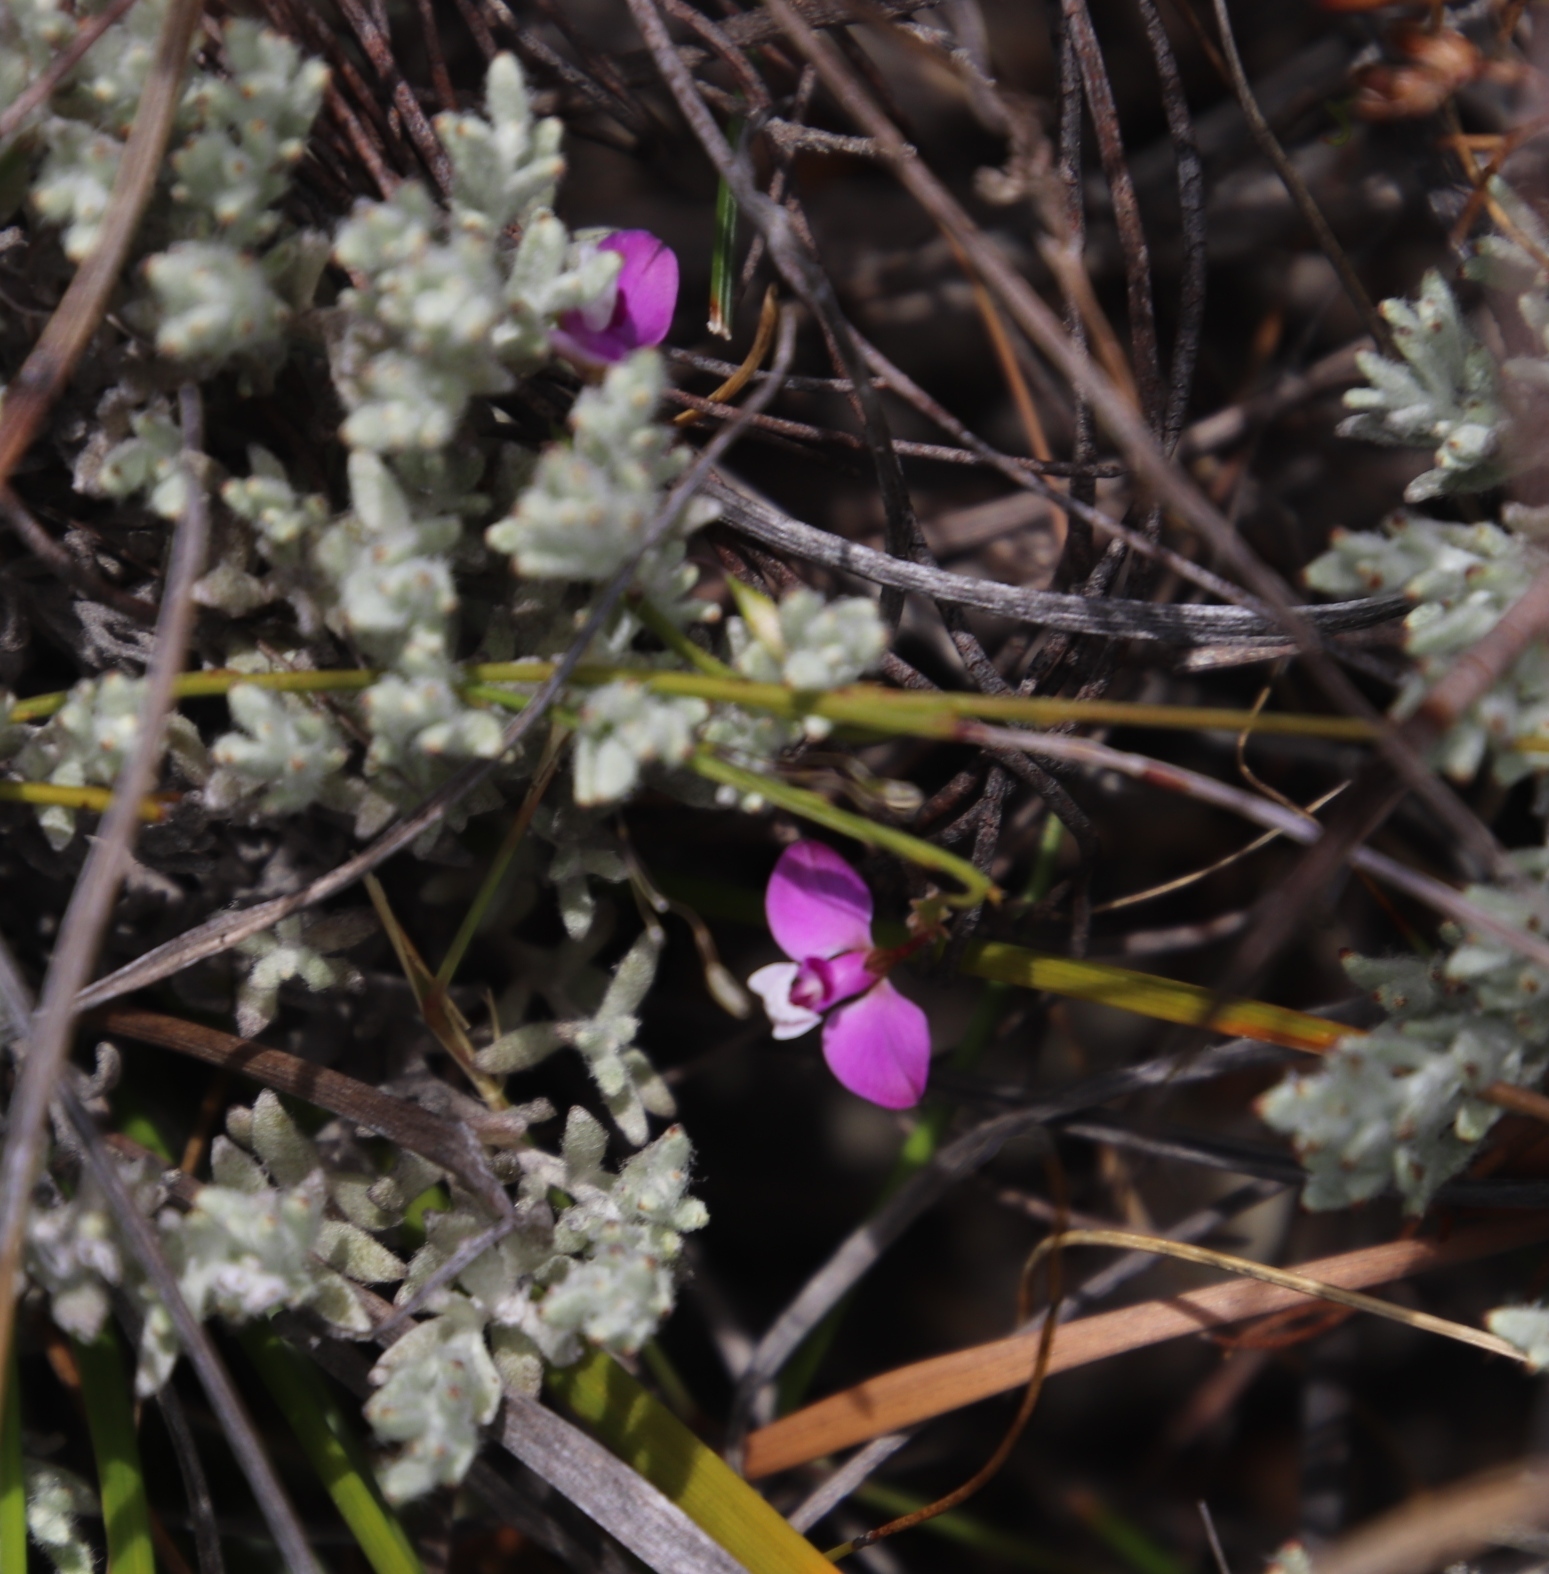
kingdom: Plantae
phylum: Tracheophyta
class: Magnoliopsida
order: Fabales
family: Polygalaceae
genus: Polygala
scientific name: Polygala lehmanniana
